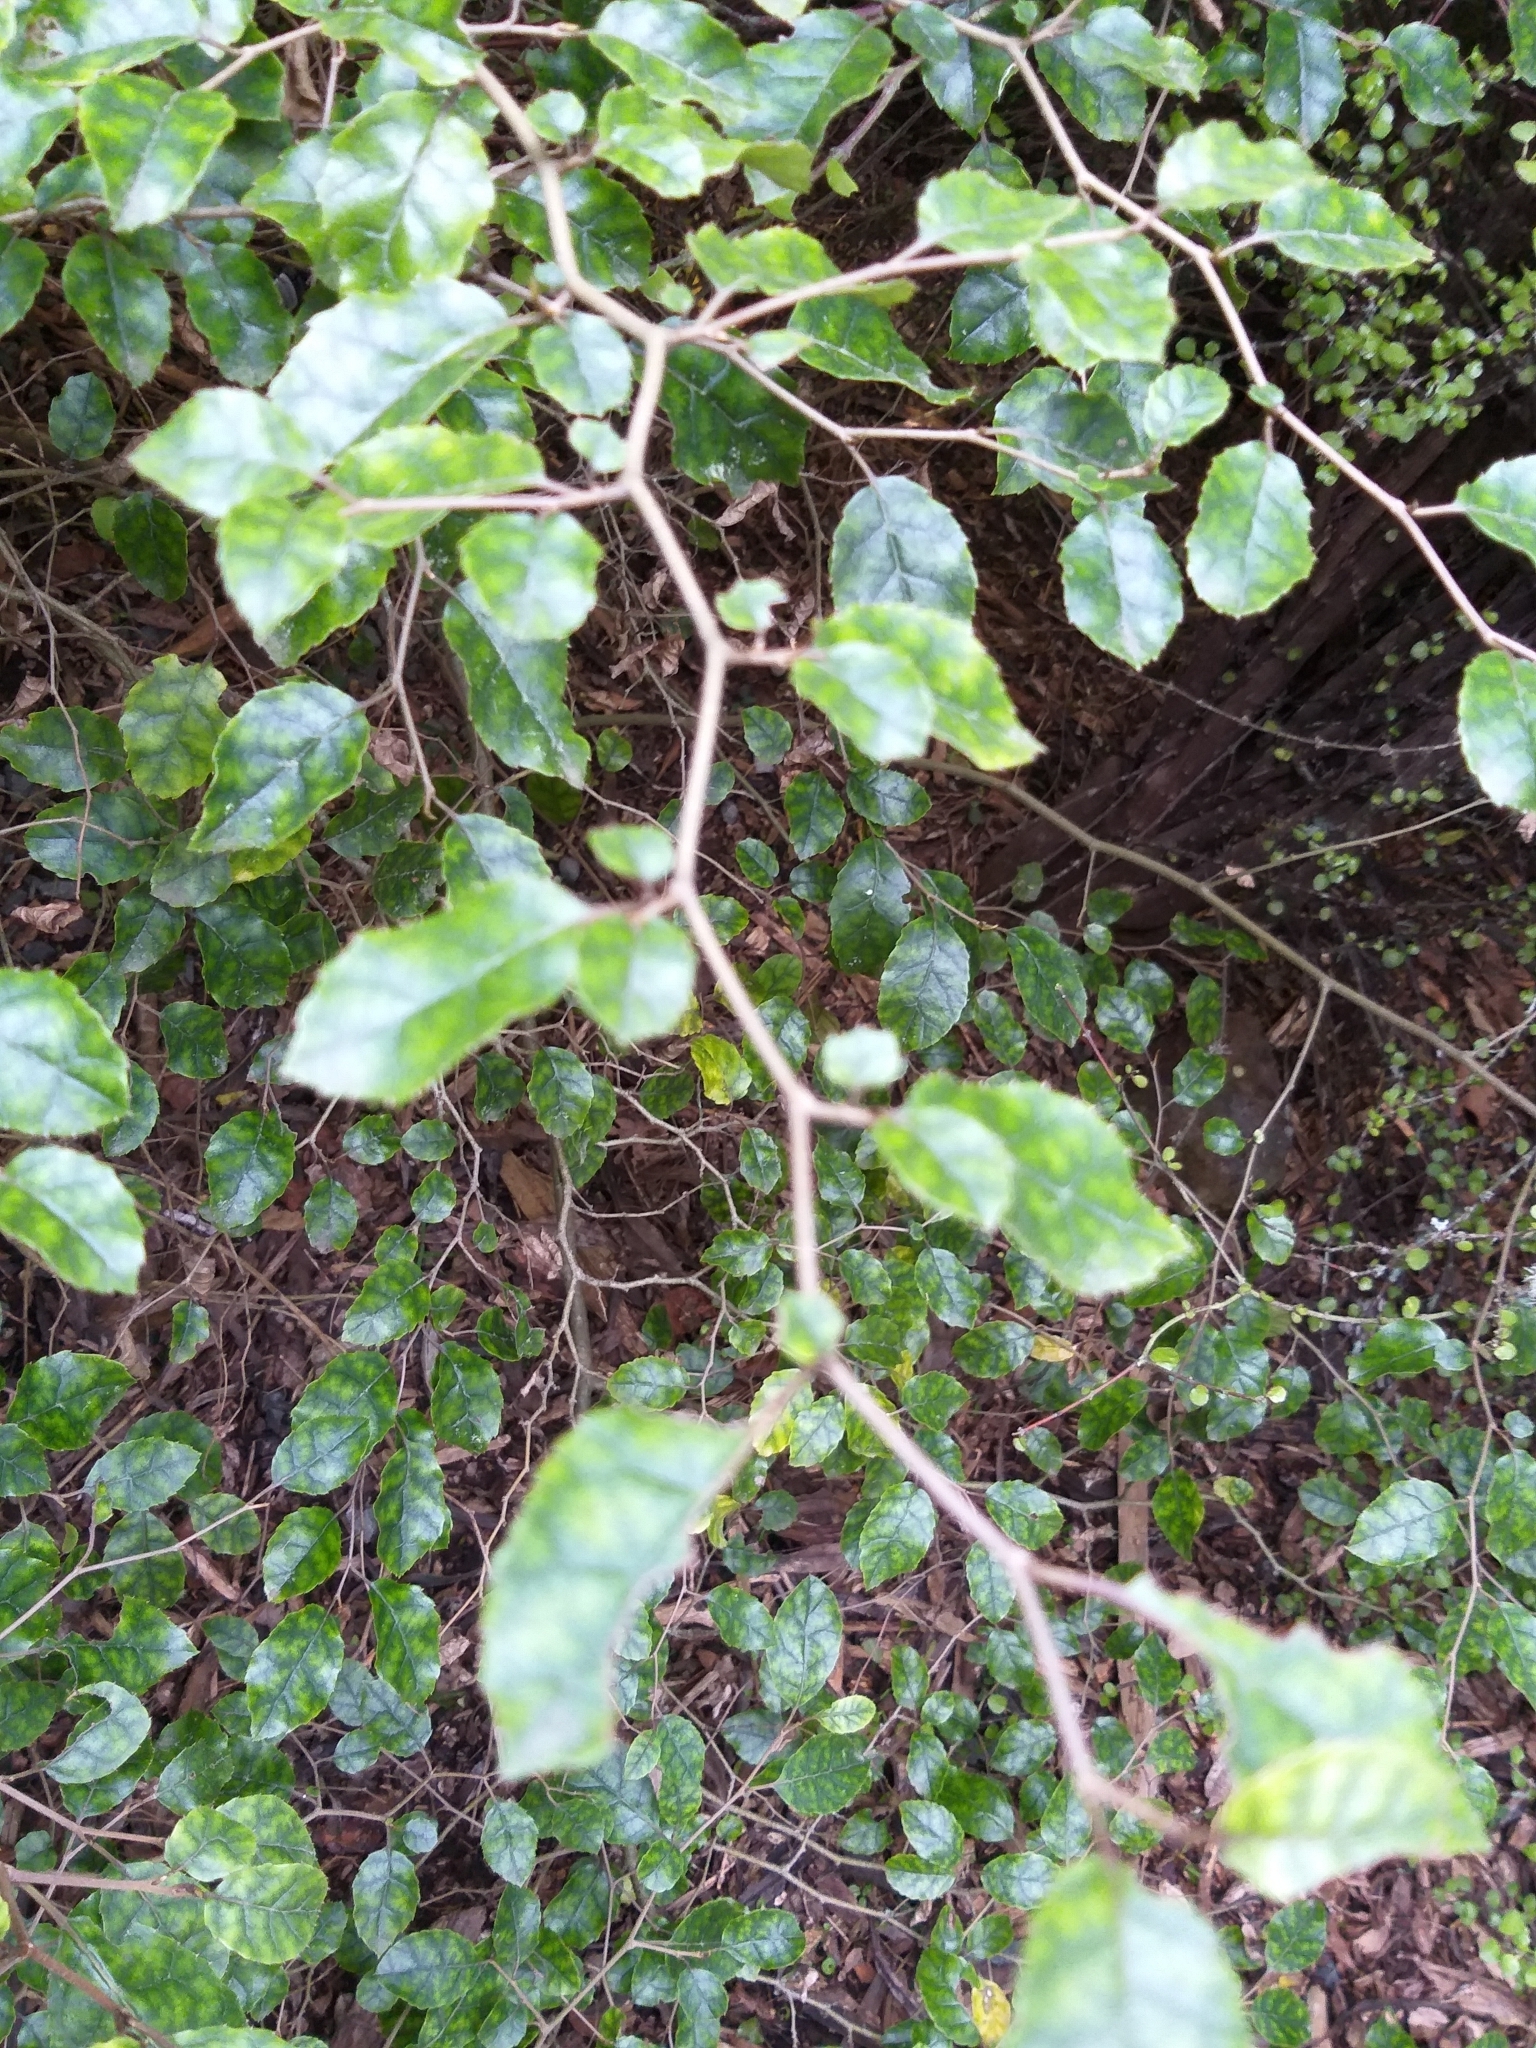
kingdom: Plantae
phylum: Tracheophyta
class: Magnoliopsida
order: Asterales
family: Rousseaceae
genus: Carpodetus
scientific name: Carpodetus serratus
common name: White mapau
